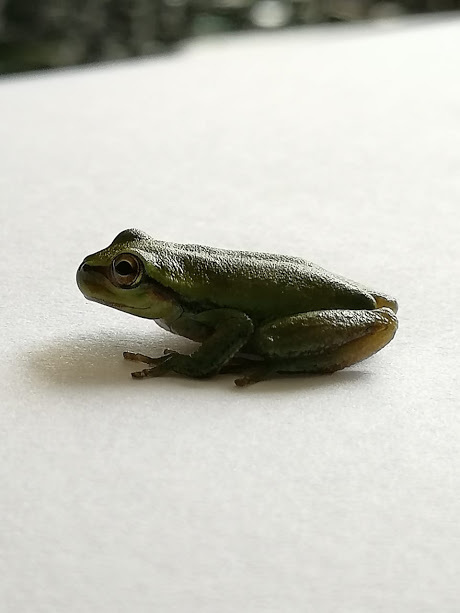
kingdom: Animalia
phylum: Chordata
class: Amphibia
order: Anura
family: Hylidae
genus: Dendropsophus
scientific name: Dendropsophus molitor
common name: Green dotted treefrog
